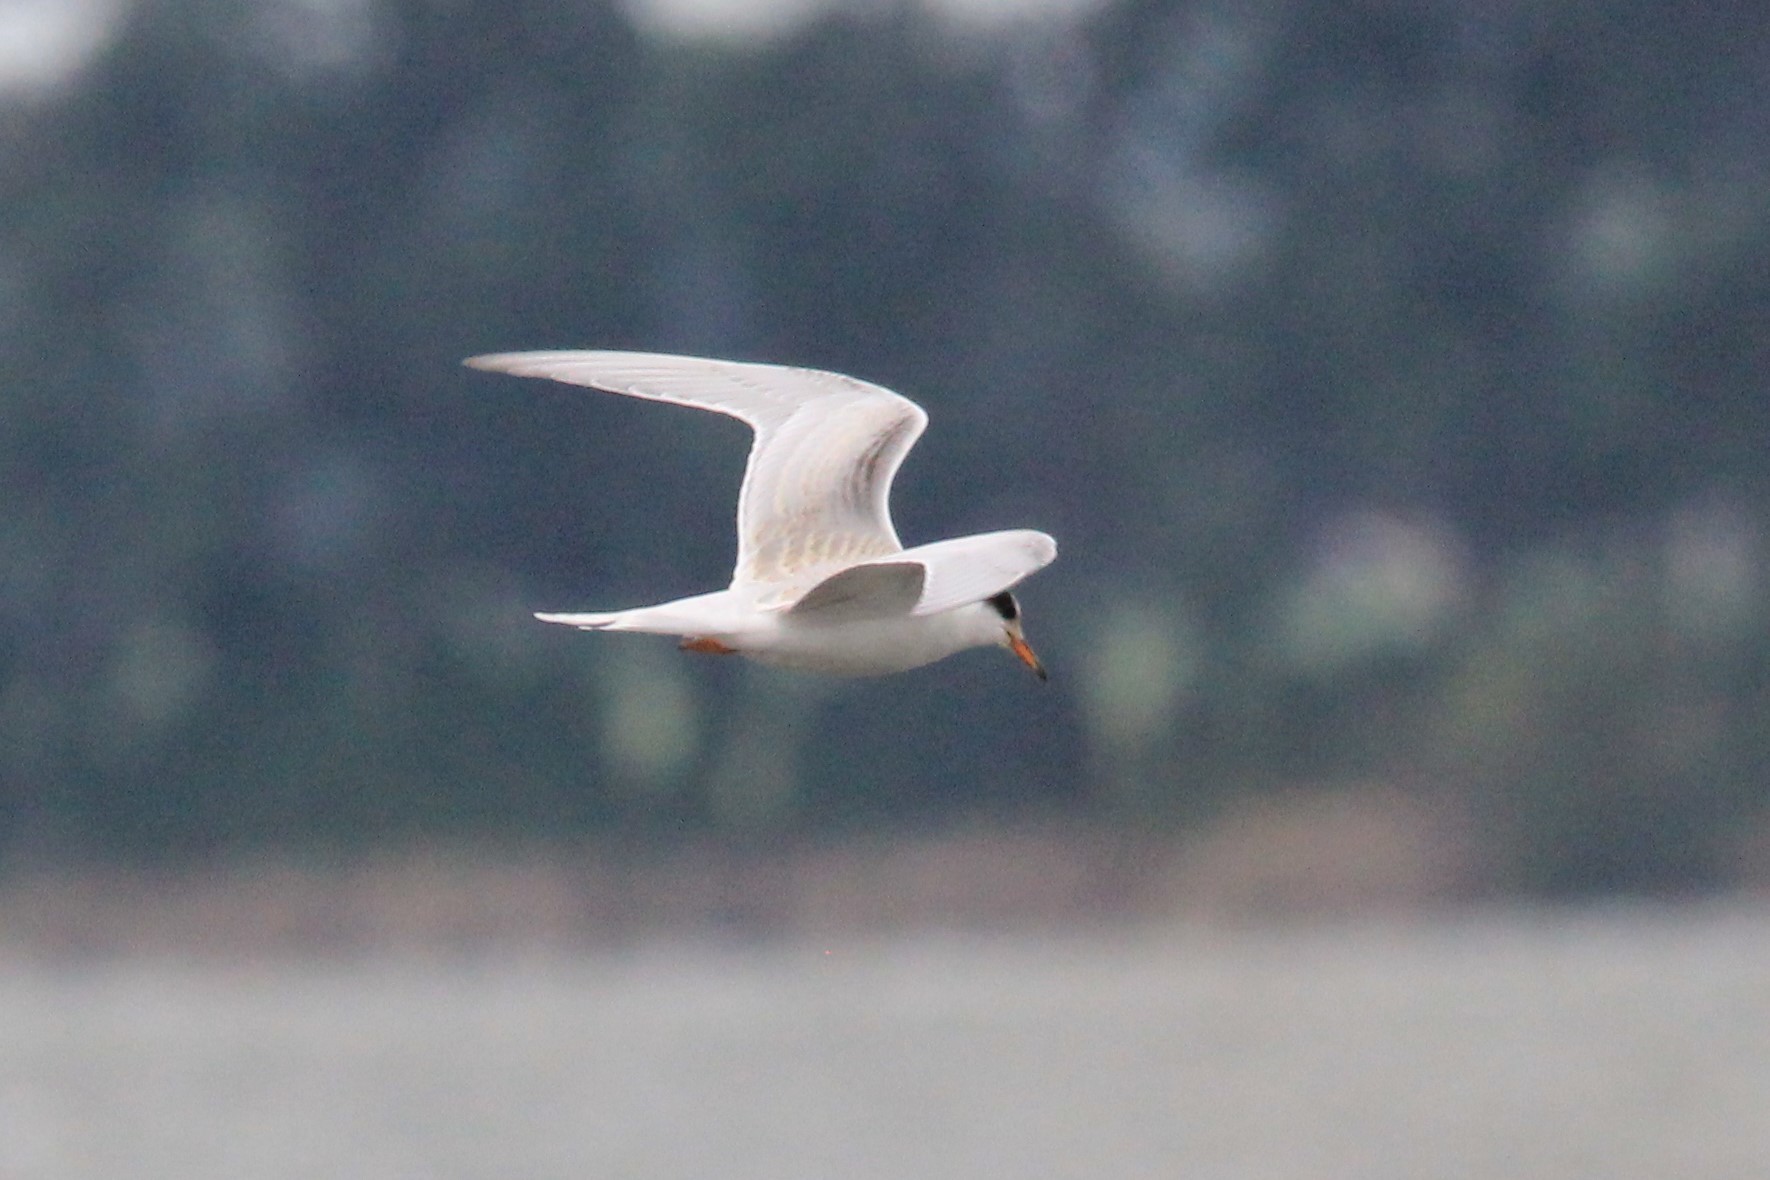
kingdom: Animalia
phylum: Chordata
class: Aves
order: Charadriiformes
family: Laridae
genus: Sterna
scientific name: Sterna forsteri
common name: Forster's tern
